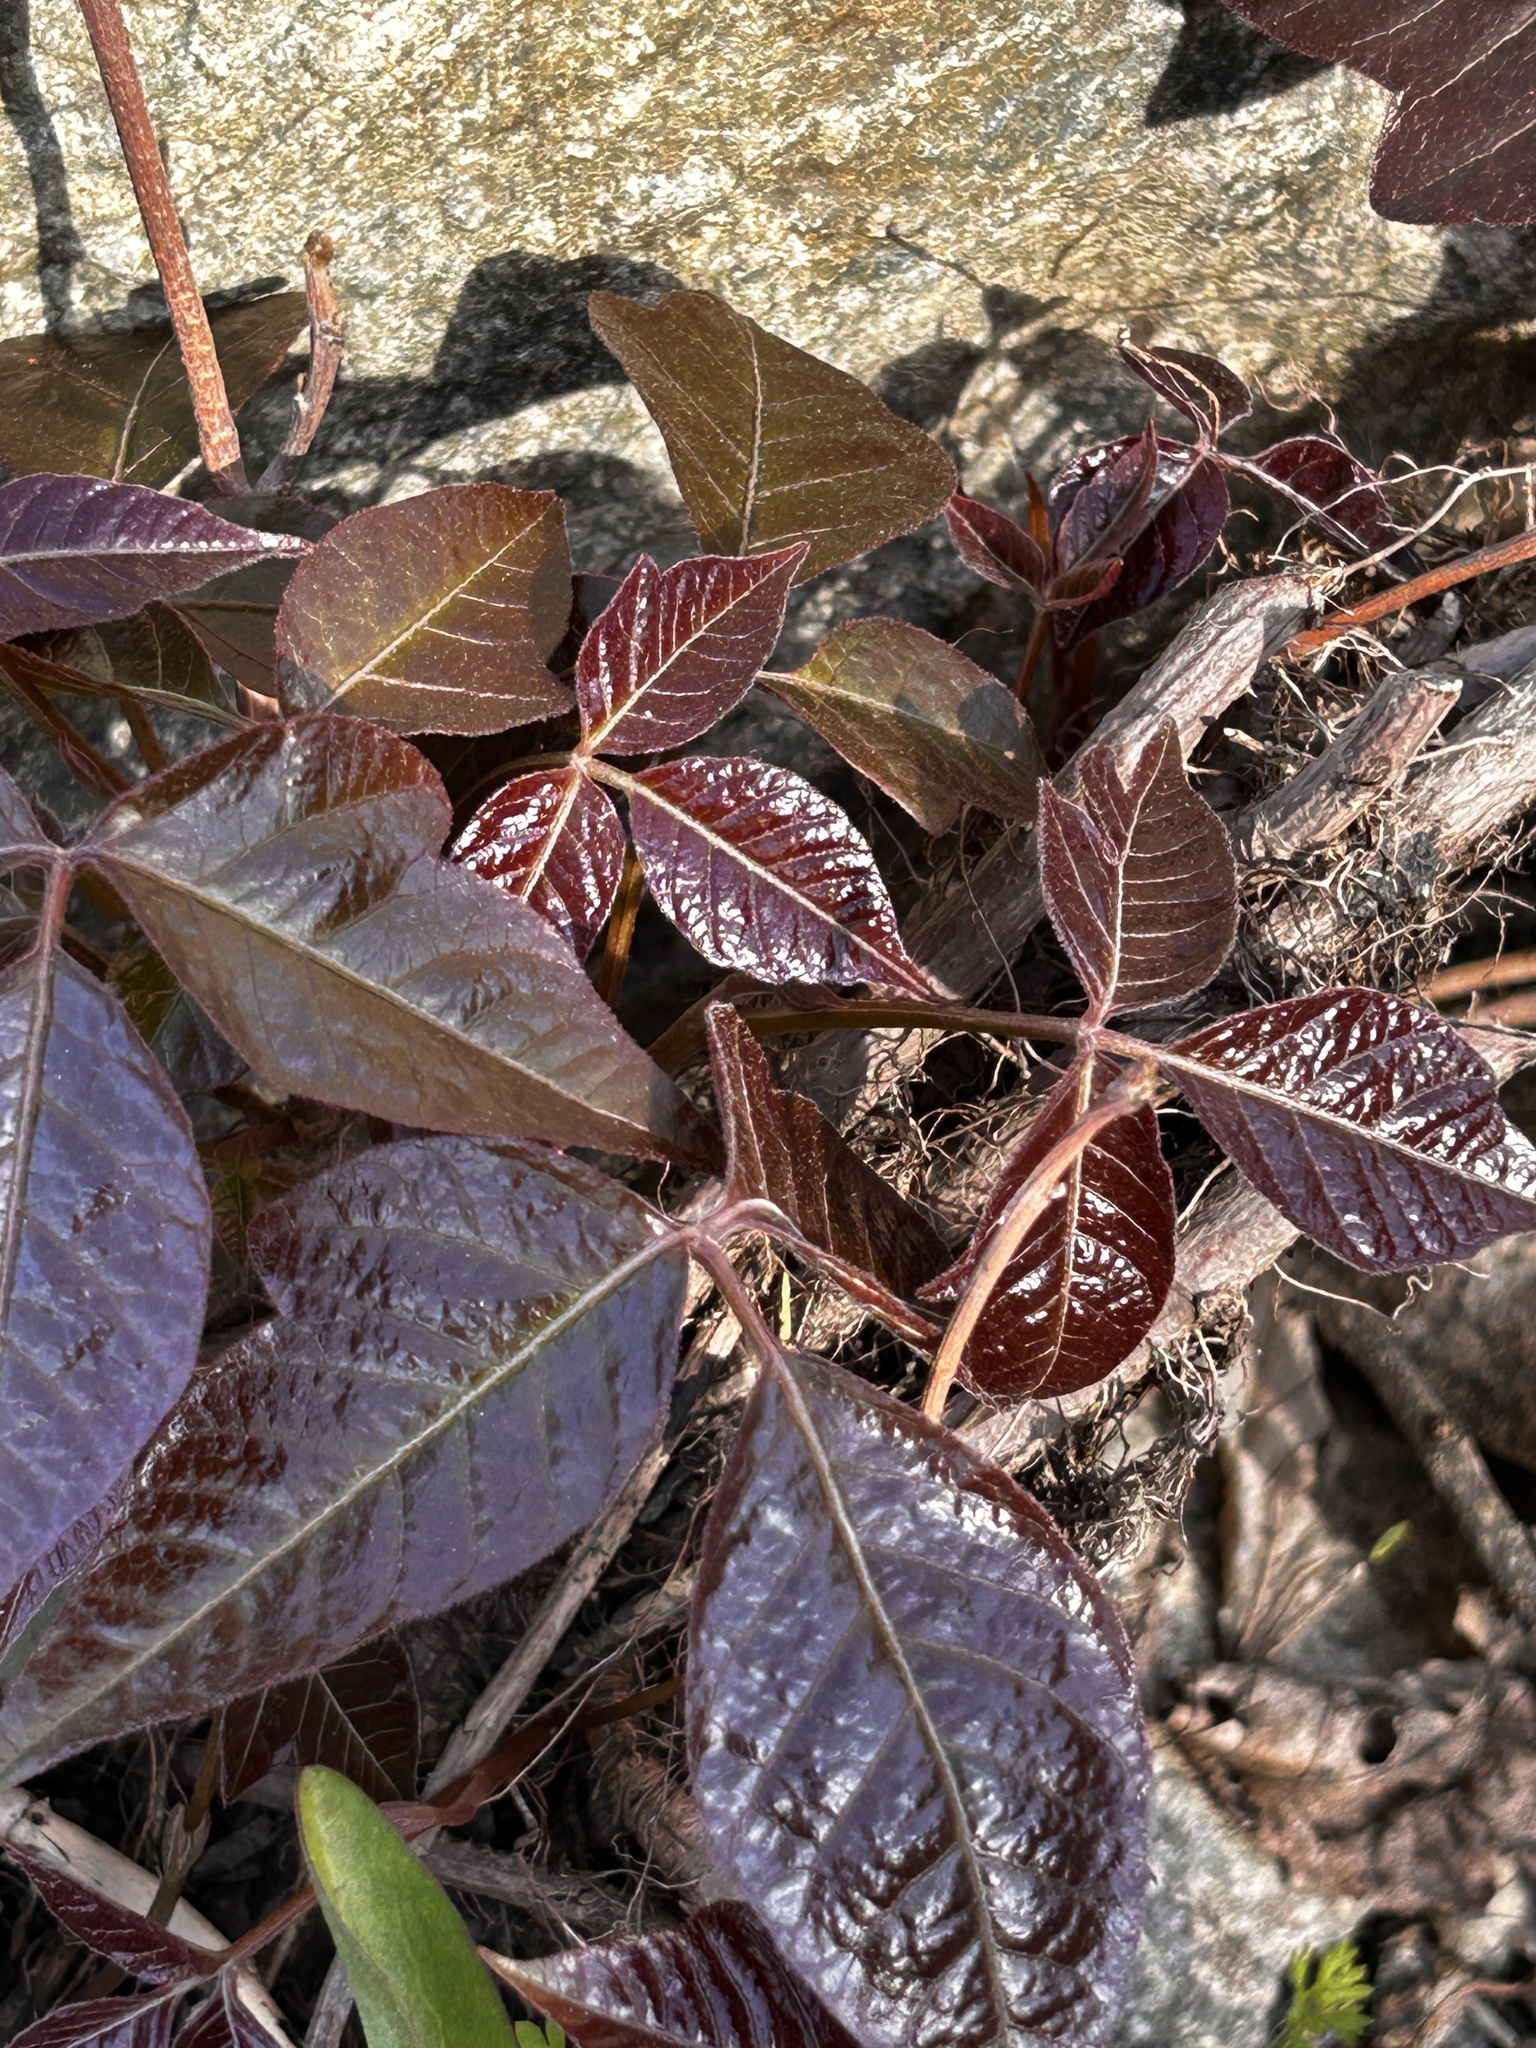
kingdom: Plantae
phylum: Tracheophyta
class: Magnoliopsida
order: Sapindales
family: Anacardiaceae
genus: Toxicodendron
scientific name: Toxicodendron radicans
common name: Poison ivy
